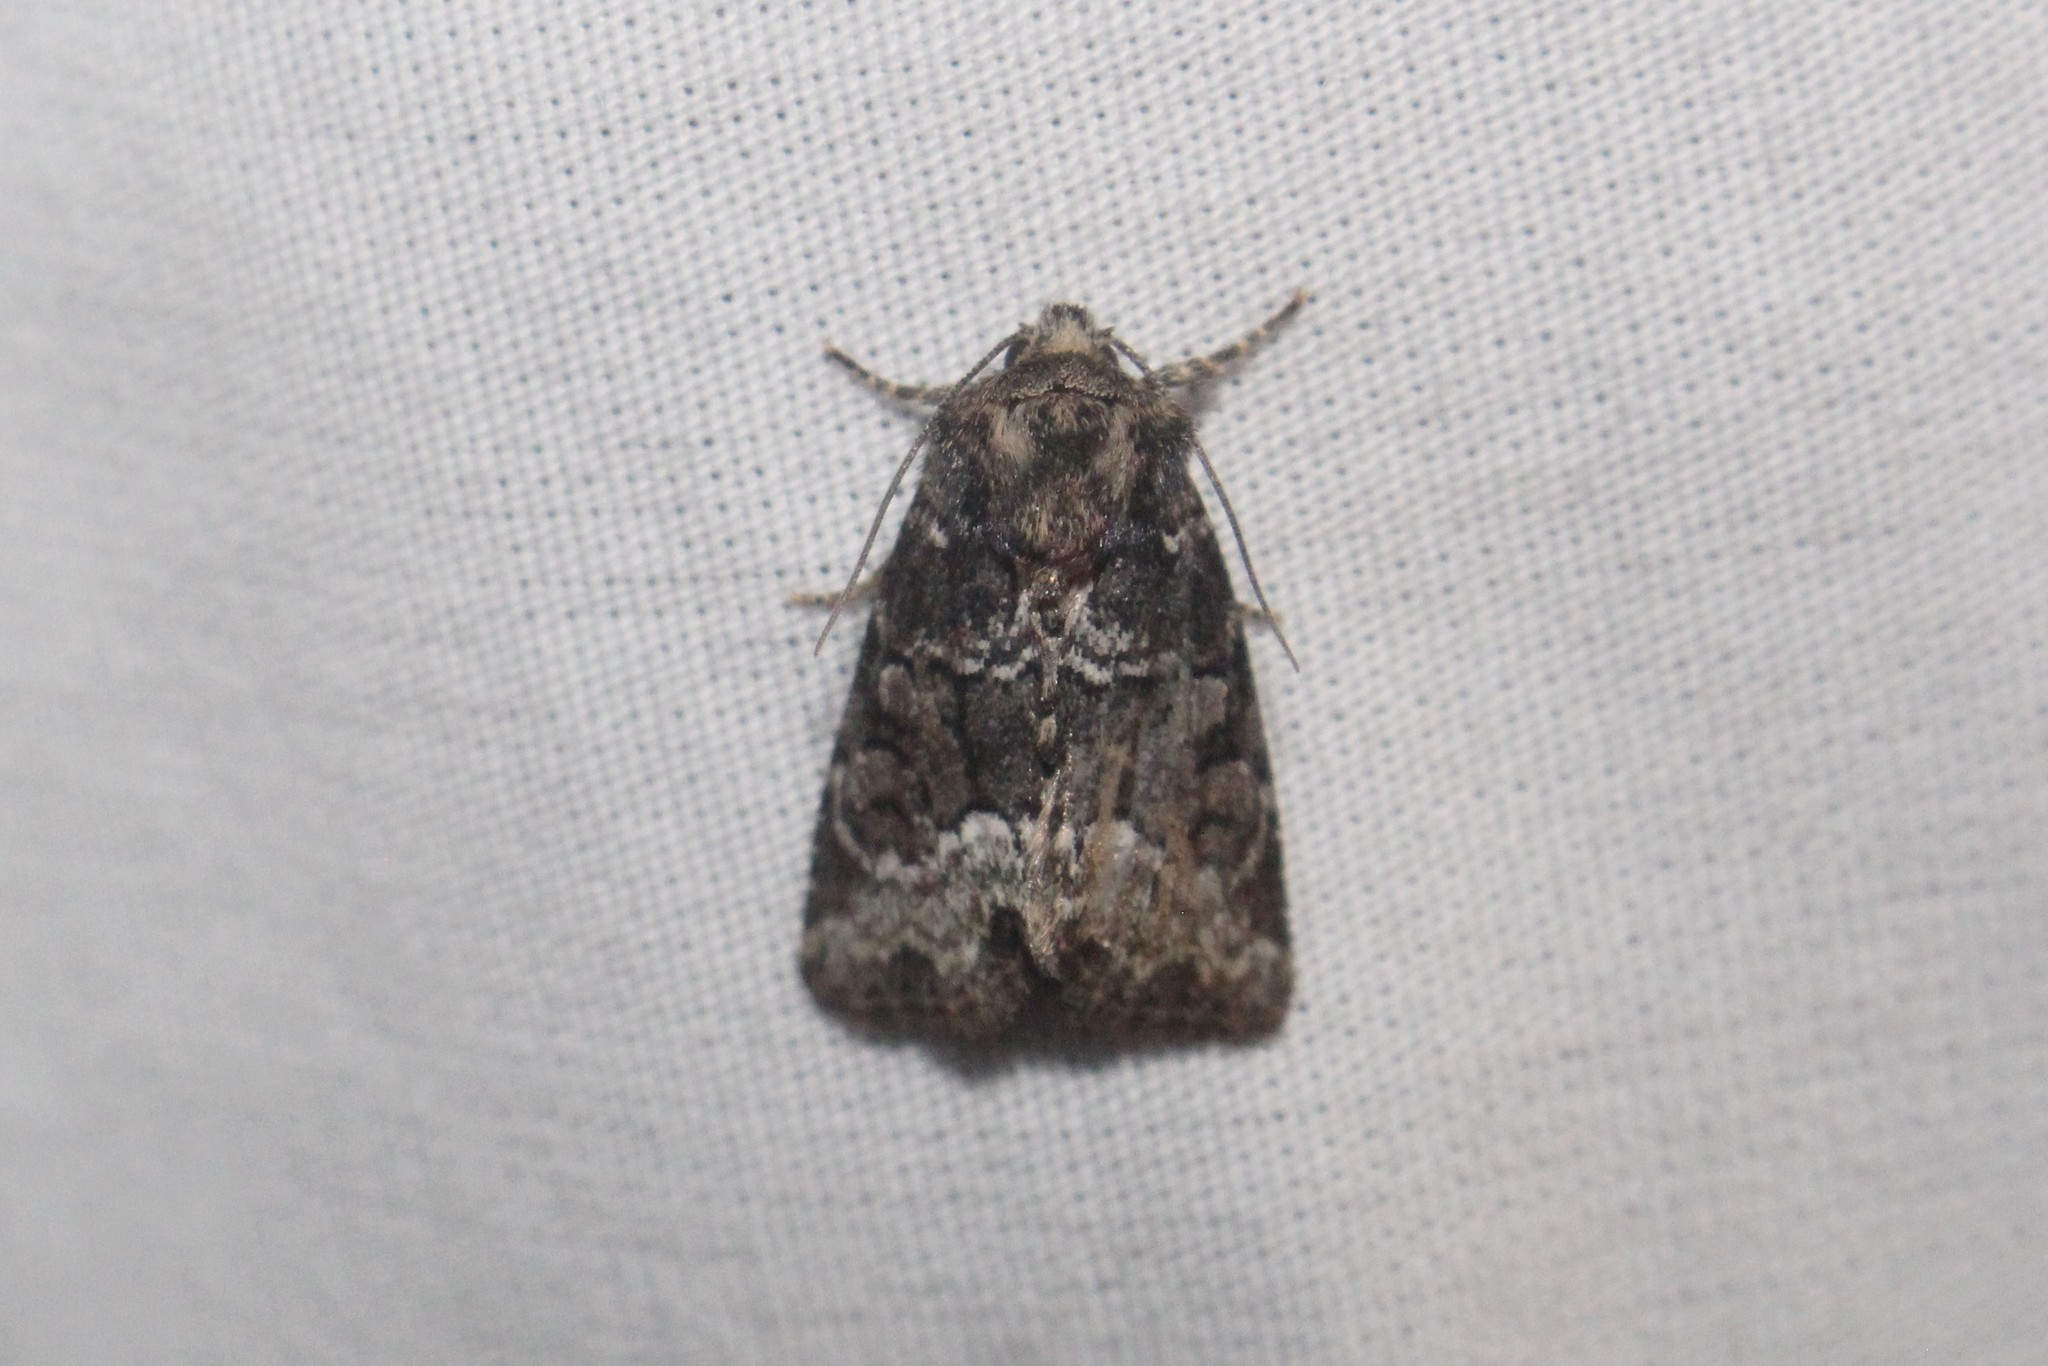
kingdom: Animalia
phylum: Arthropoda
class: Insecta
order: Lepidoptera
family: Noctuidae
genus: Oligia
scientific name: Oligia strigilis
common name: Marbled minor
